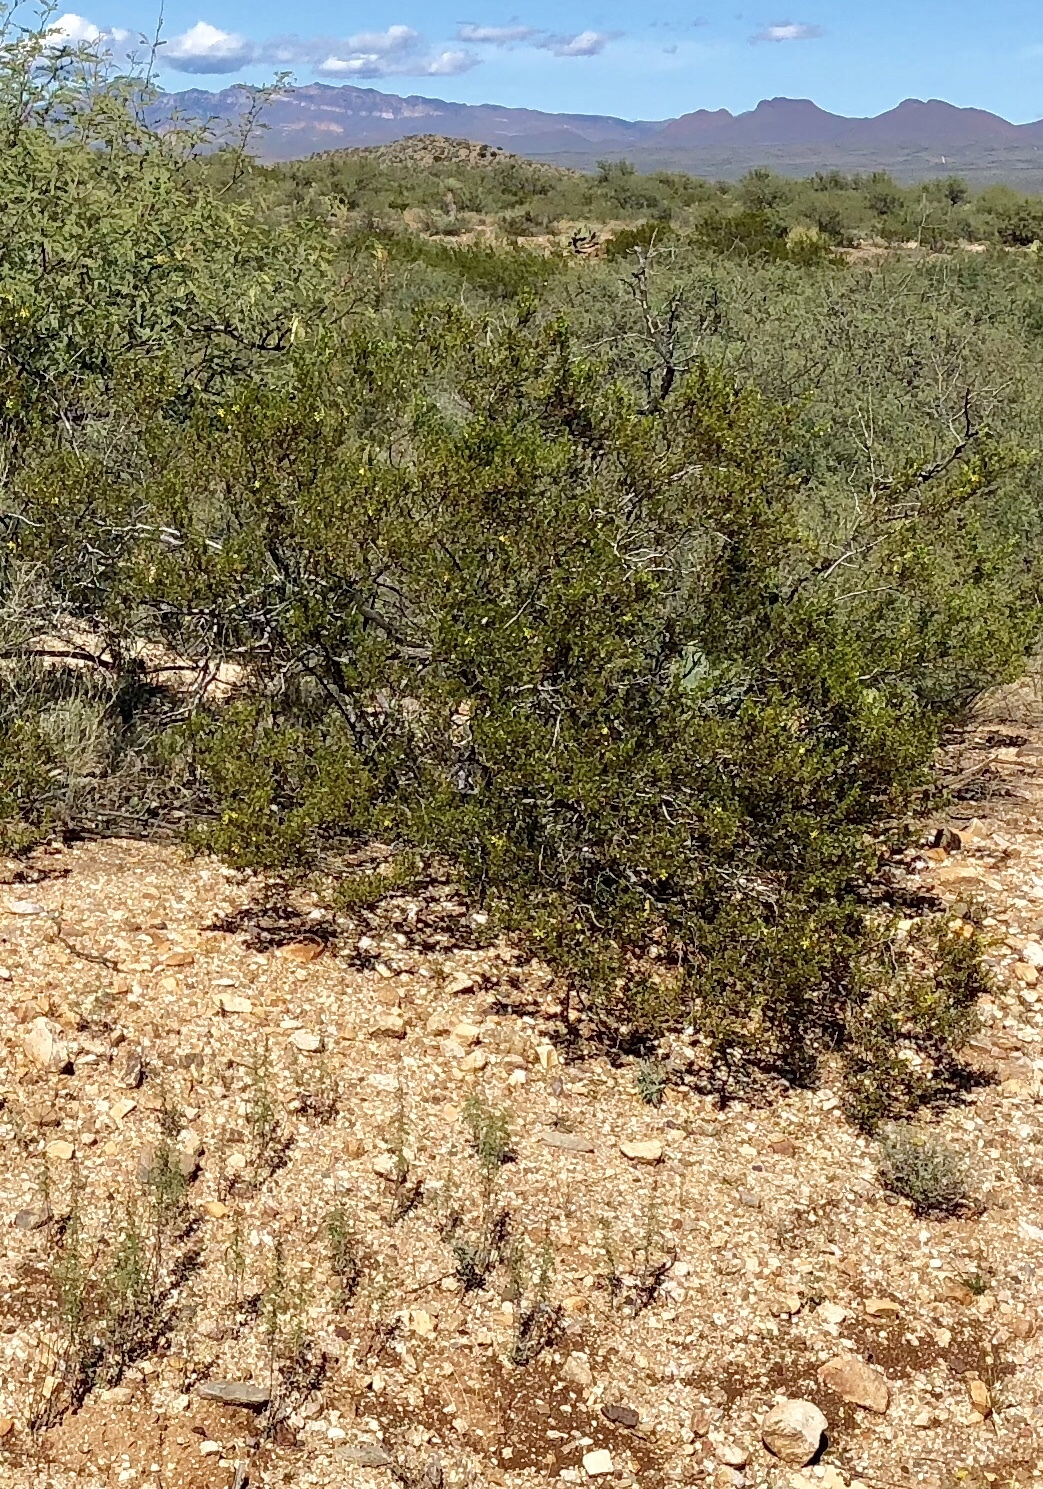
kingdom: Plantae
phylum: Tracheophyta
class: Magnoliopsida
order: Zygophyllales
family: Zygophyllaceae
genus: Larrea
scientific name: Larrea tridentata
